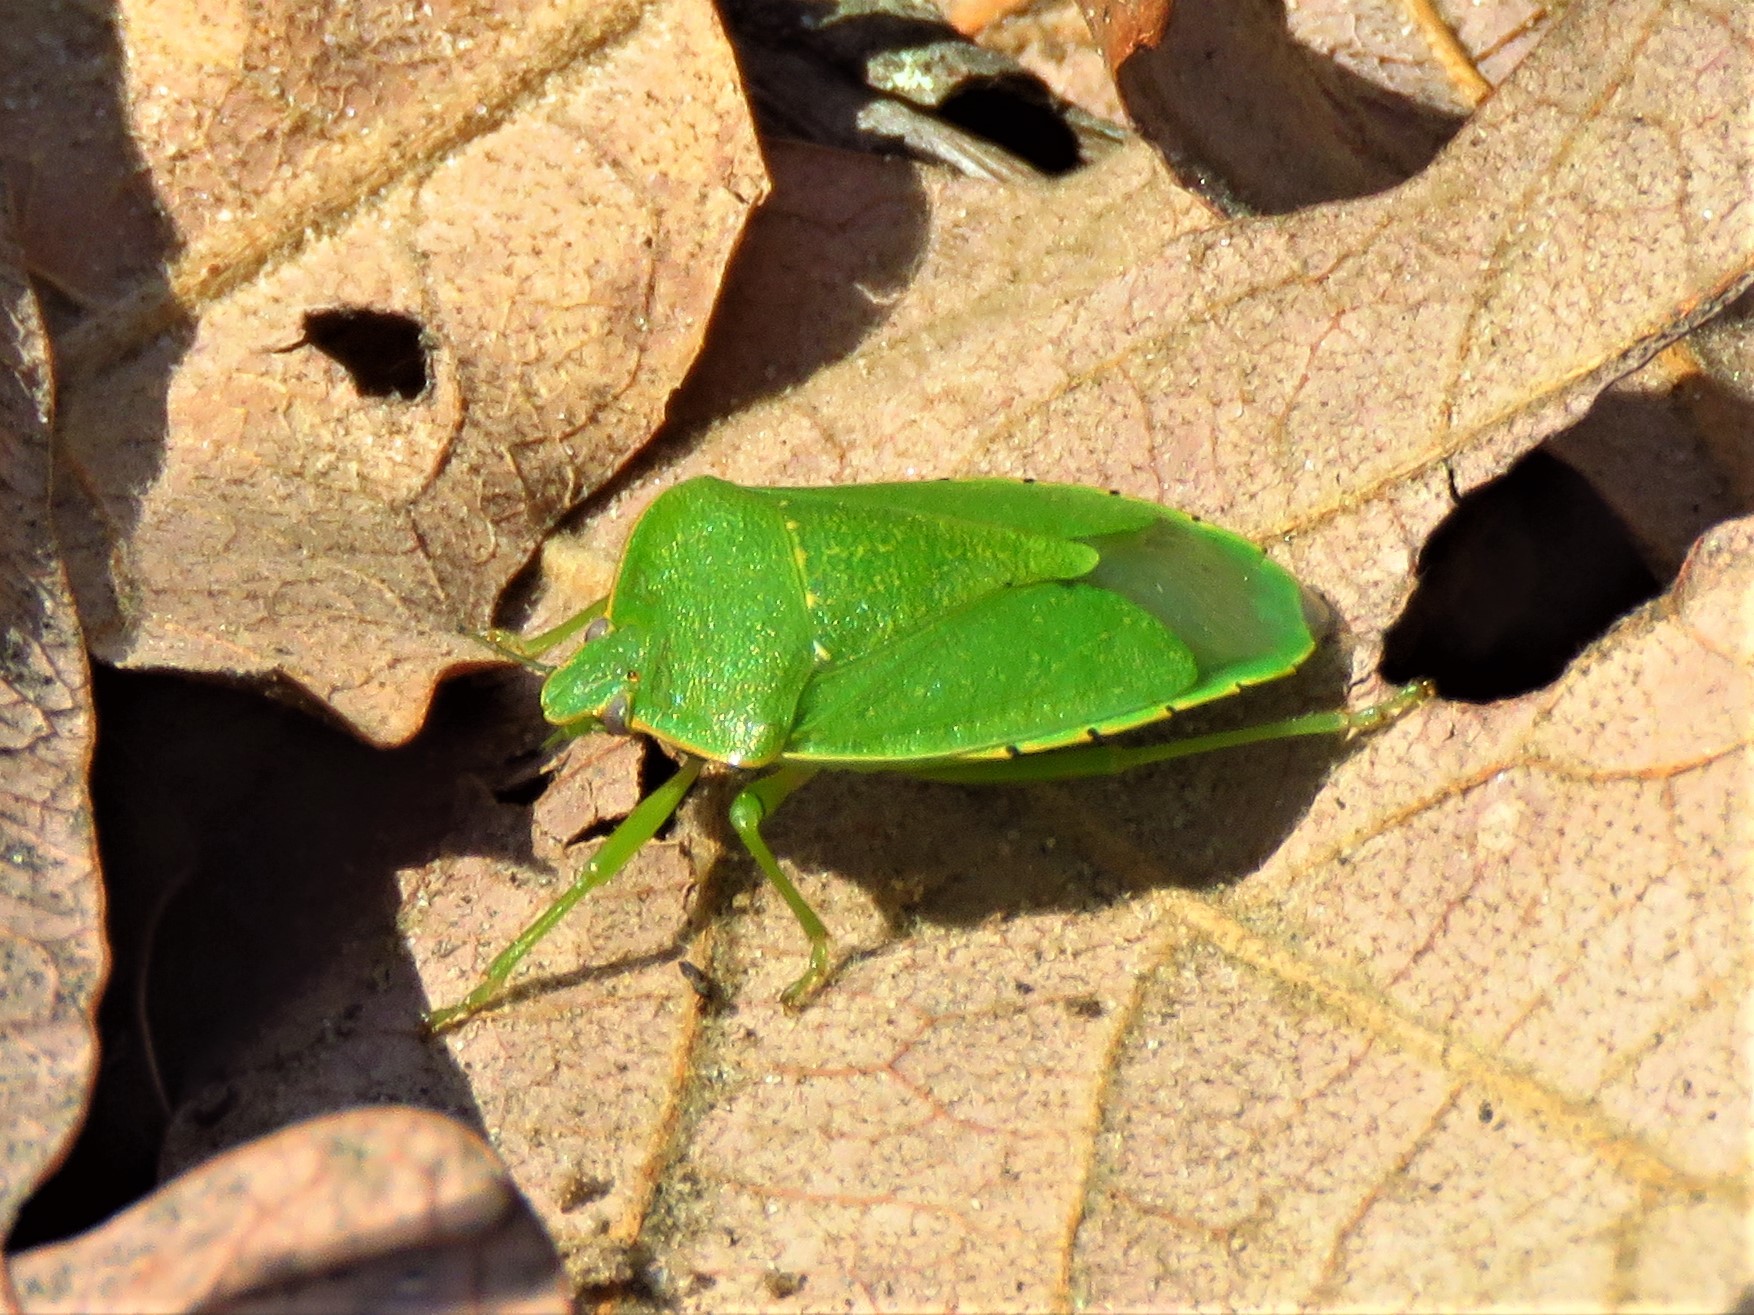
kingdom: Animalia
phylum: Arthropoda
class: Insecta
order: Hemiptera
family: Pentatomidae
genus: Chinavia
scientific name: Chinavia hilaris
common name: Green stink bug
